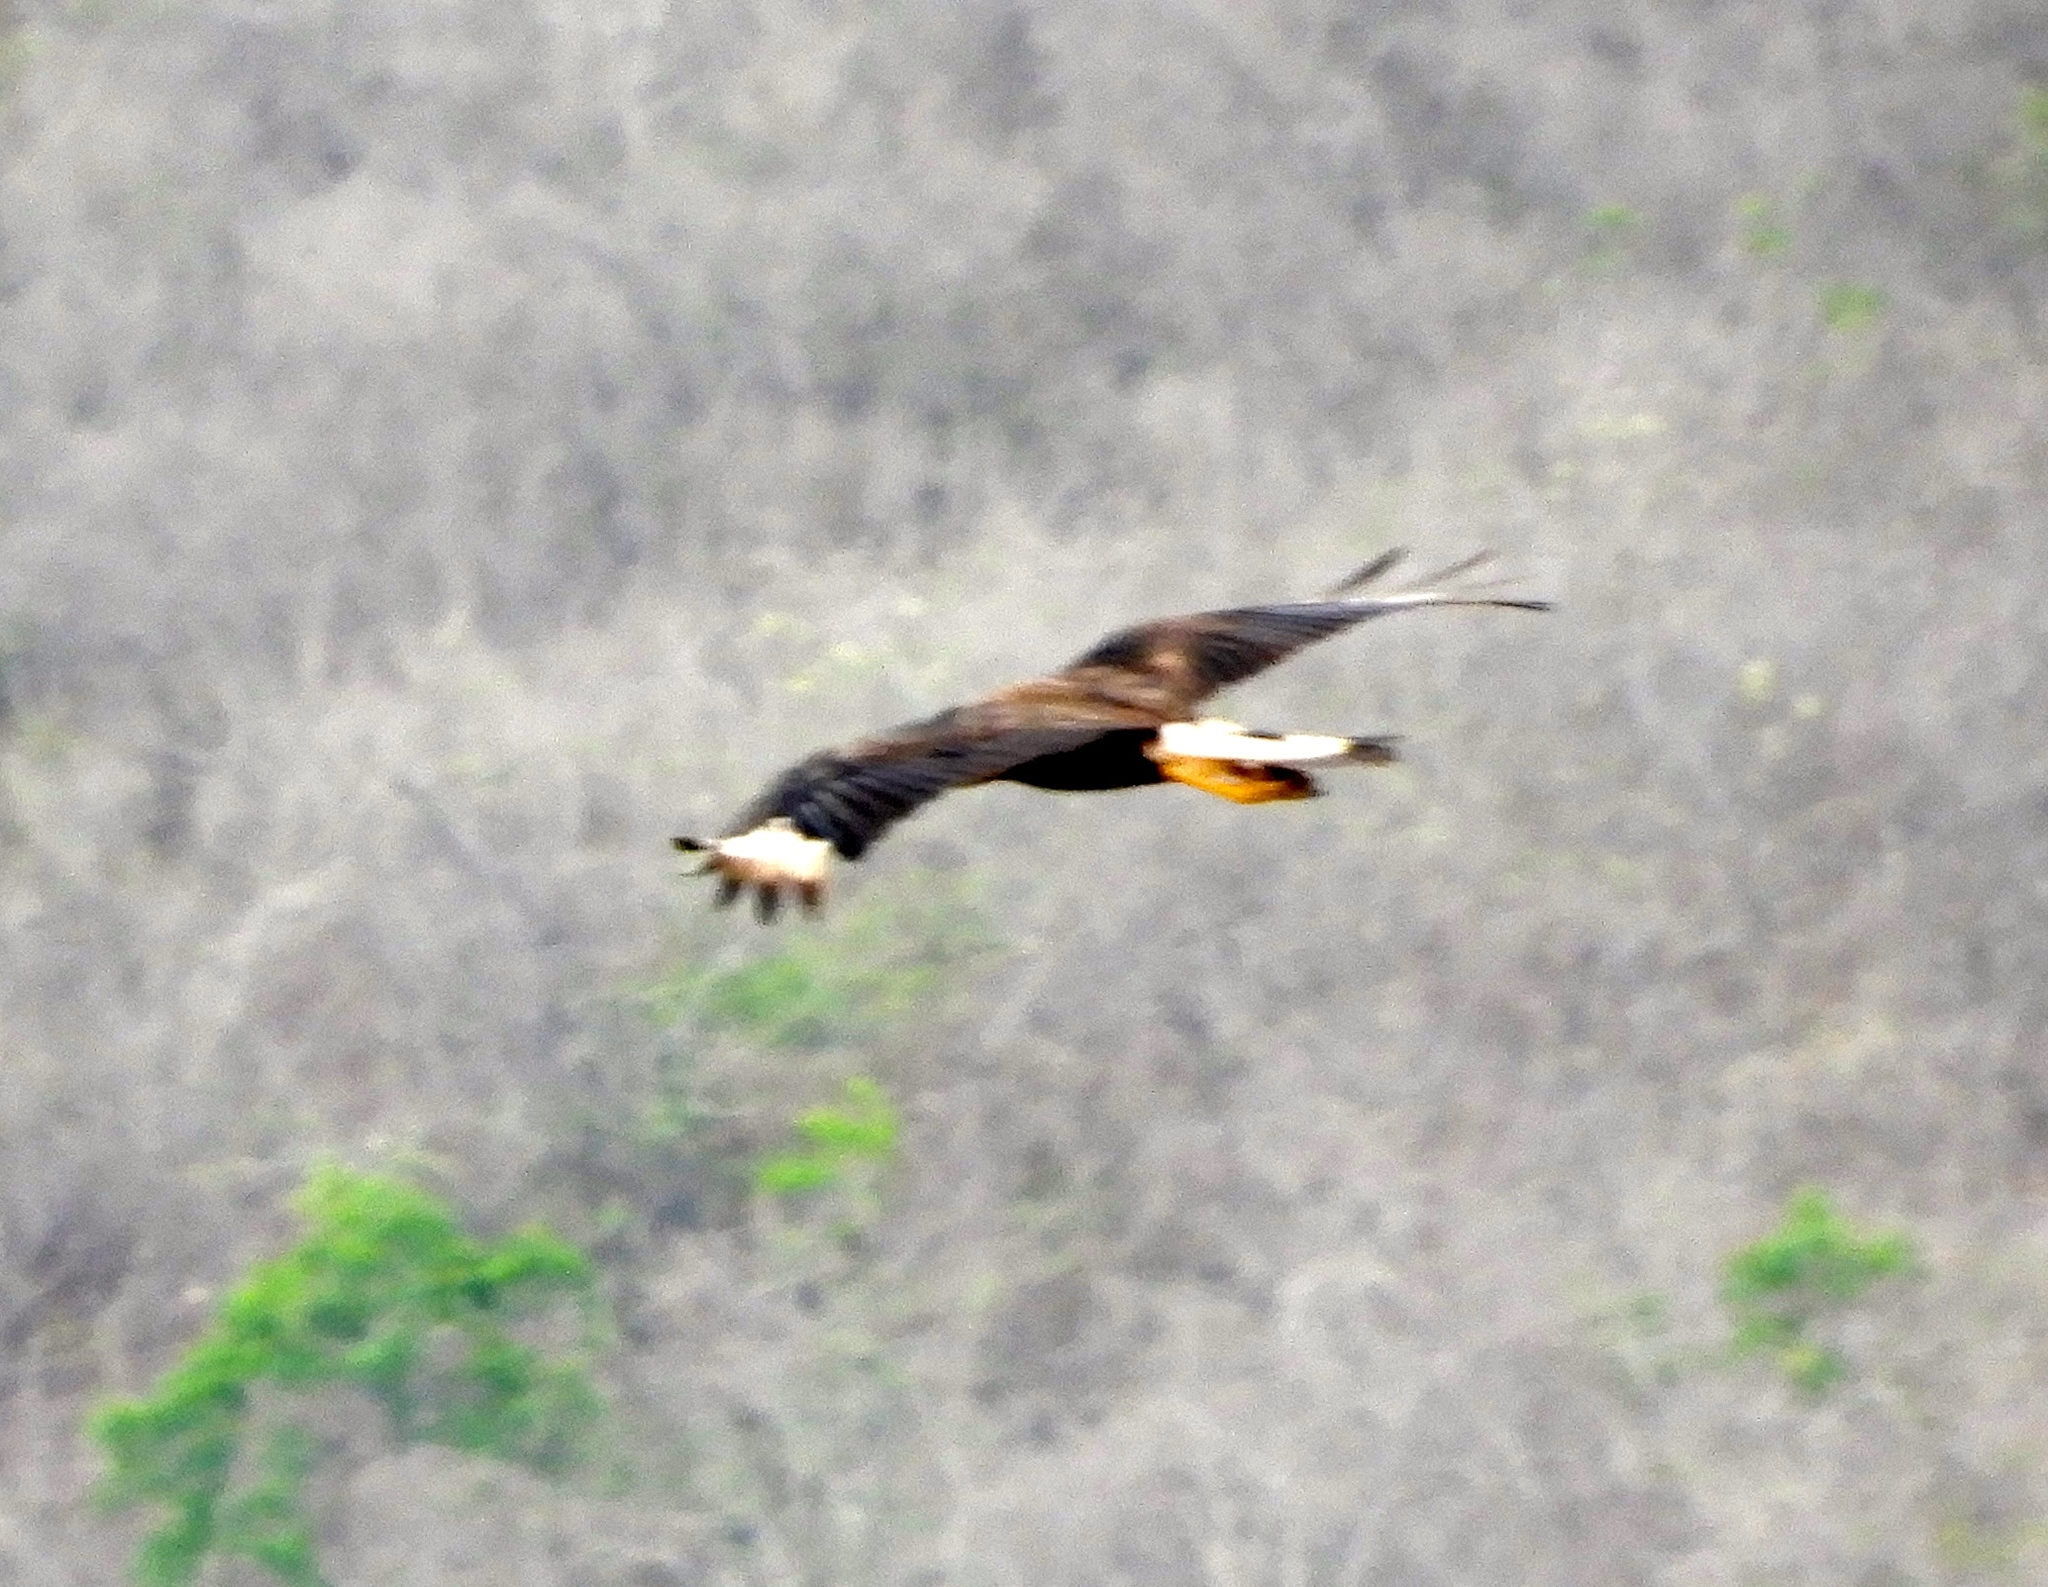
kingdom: Animalia
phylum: Chordata
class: Aves
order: Falconiformes
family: Falconidae
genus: Caracara
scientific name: Caracara plancus
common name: Southern caracara
